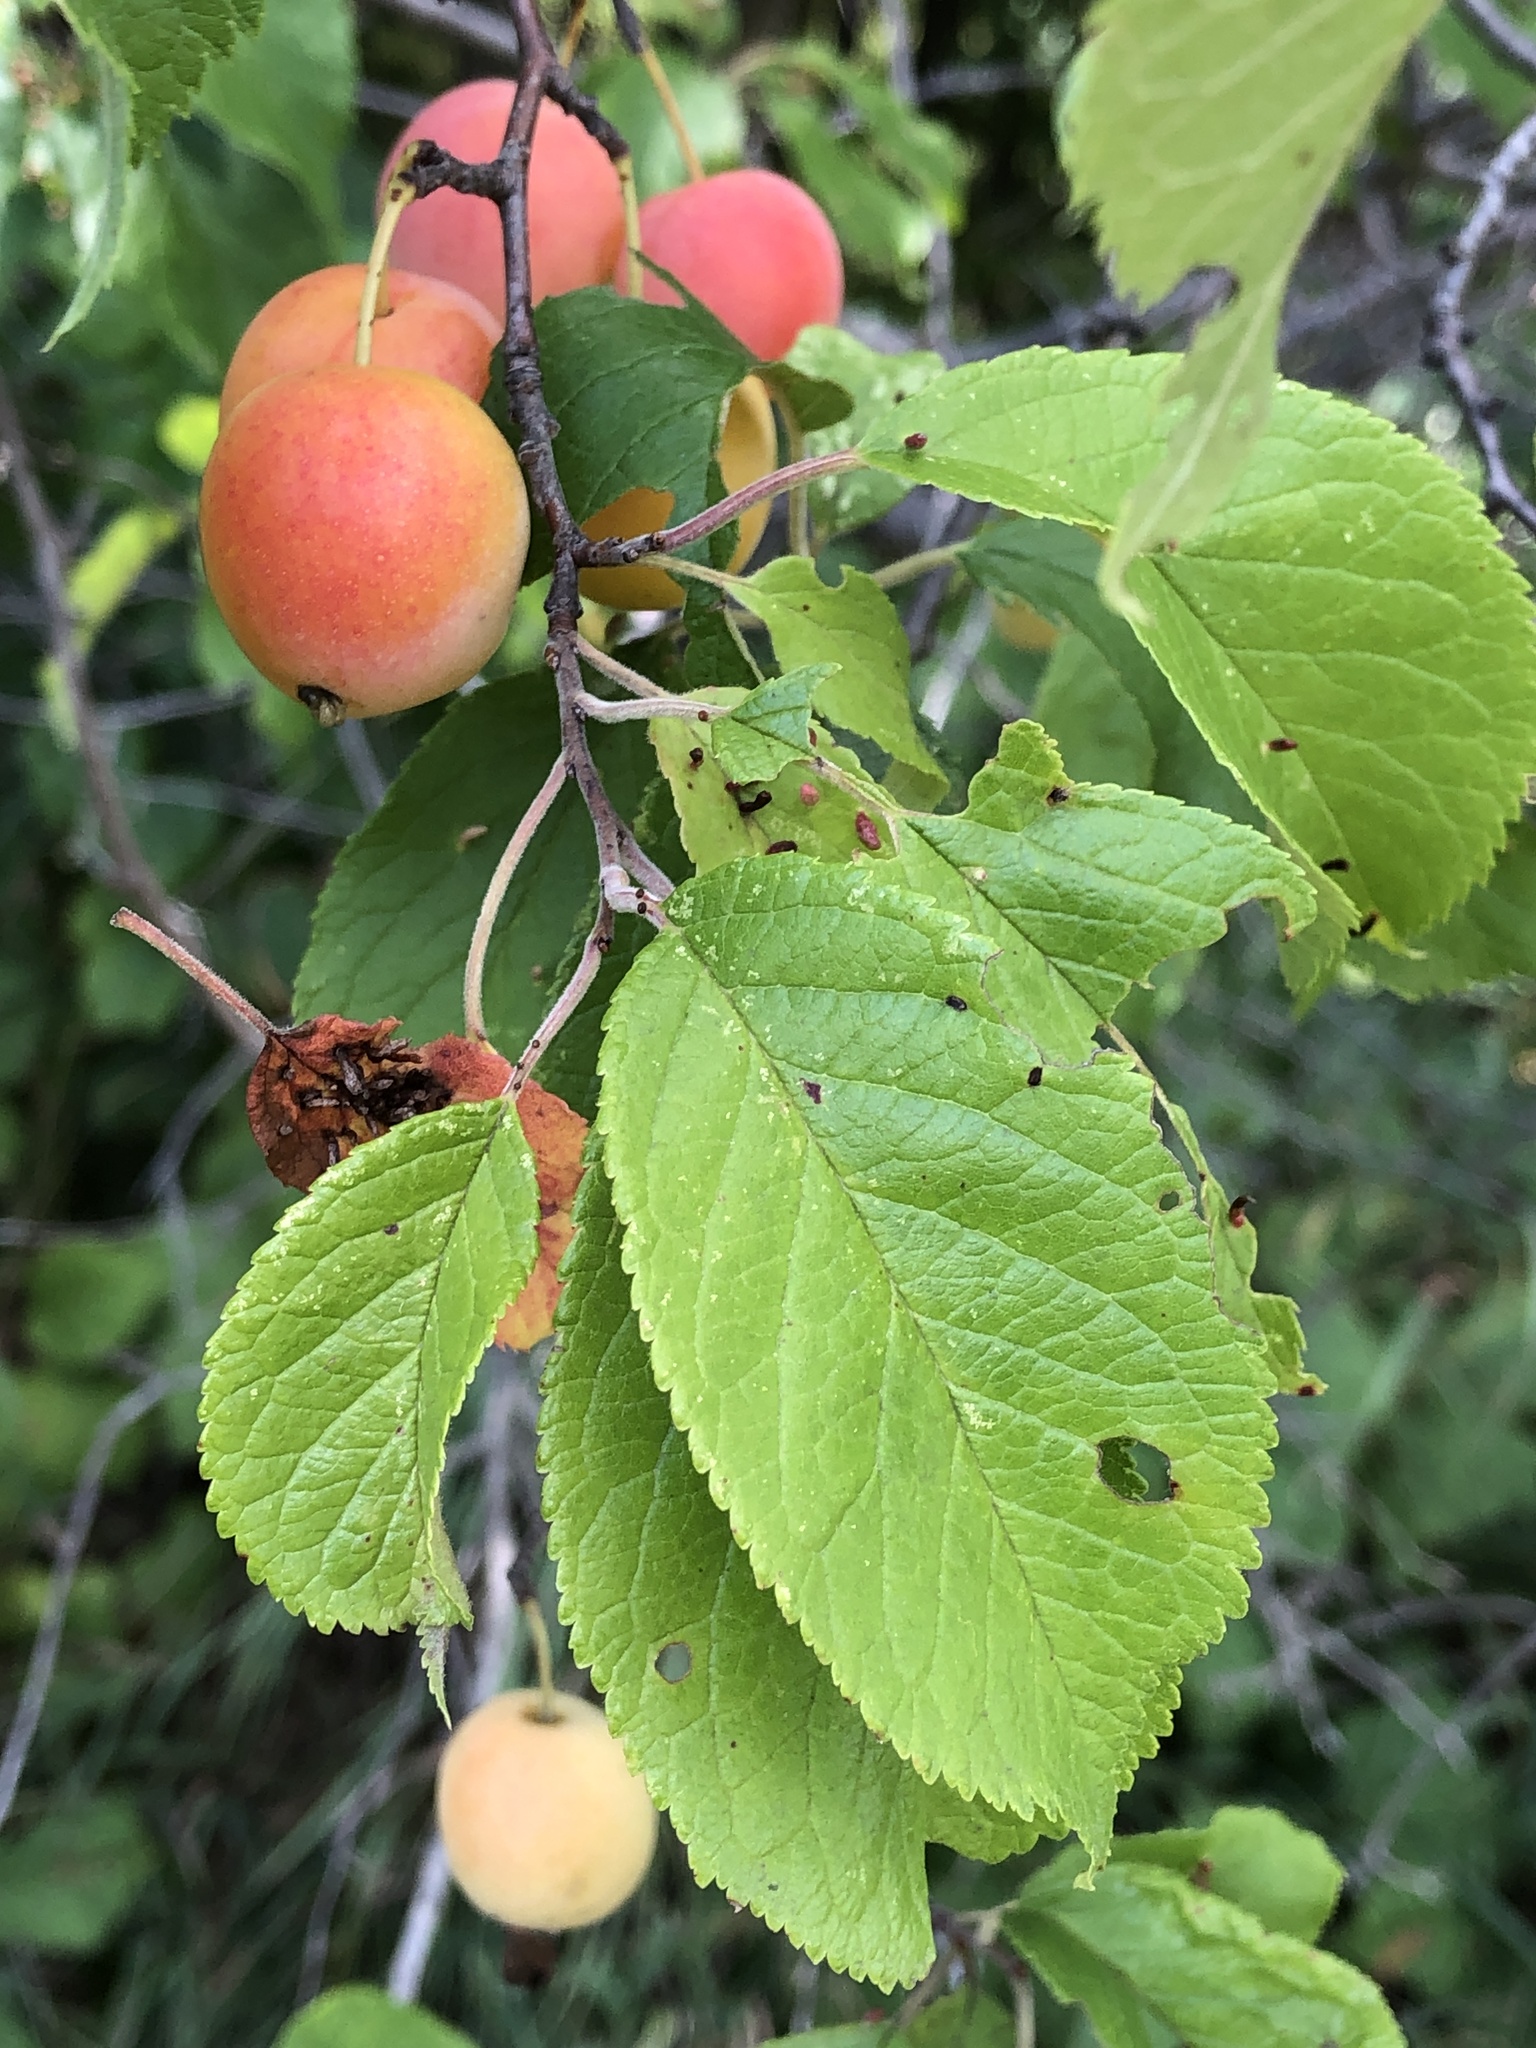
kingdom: Plantae
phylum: Tracheophyta
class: Magnoliopsida
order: Rosales
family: Rosaceae
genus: Prunus
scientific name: Prunus americana
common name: American plum
